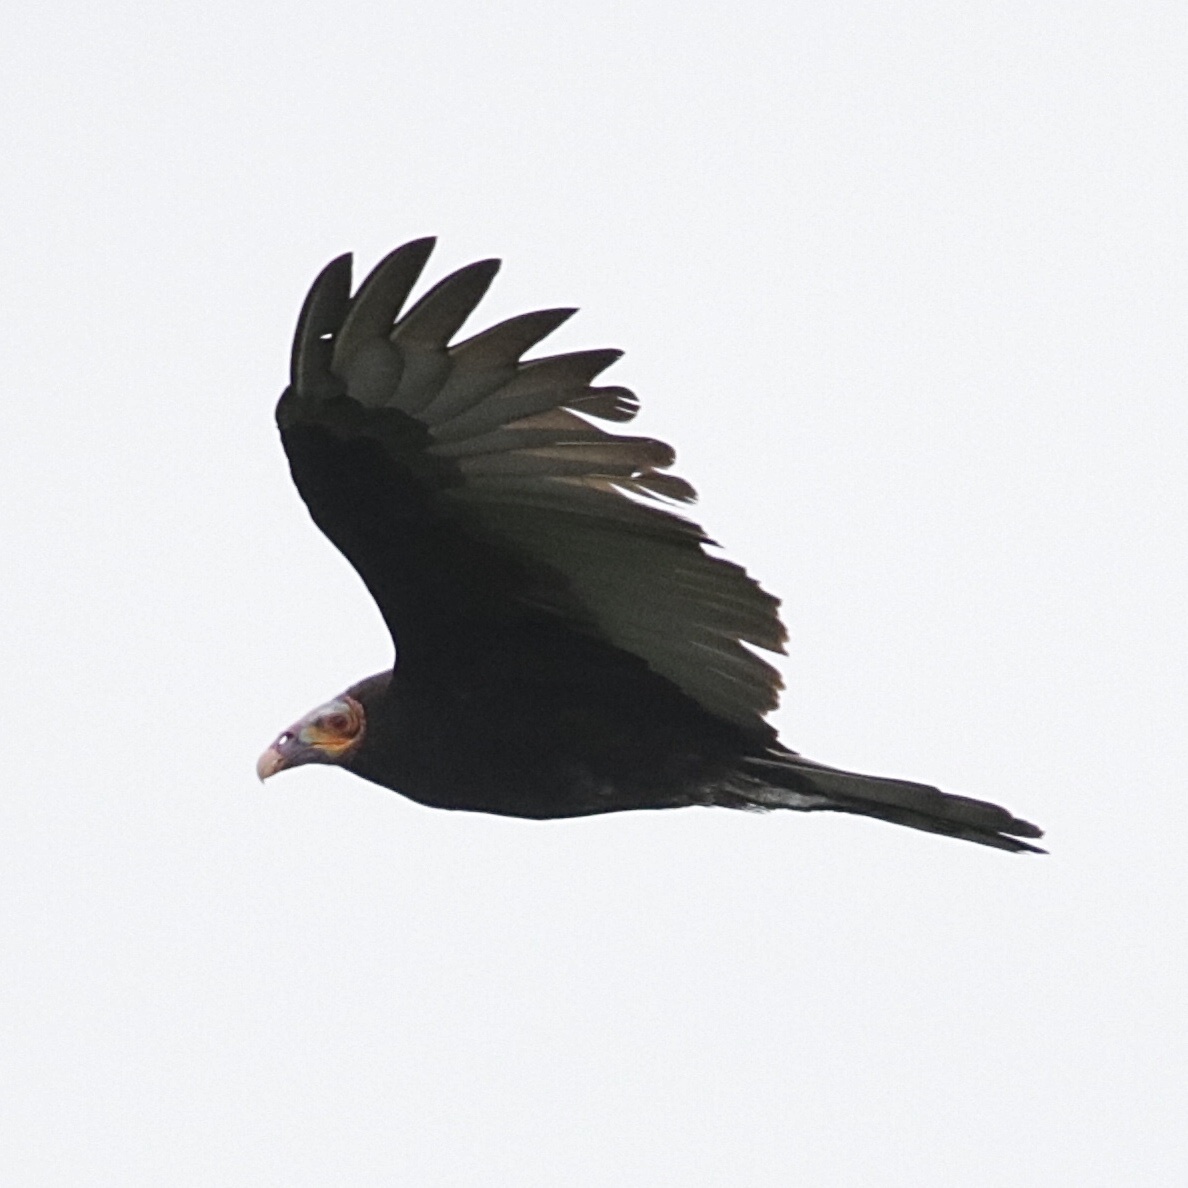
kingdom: Animalia
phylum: Chordata
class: Aves
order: Accipitriformes
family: Cathartidae
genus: Cathartes
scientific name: Cathartes burrovianus
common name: Lesser yellow-headed vulture
